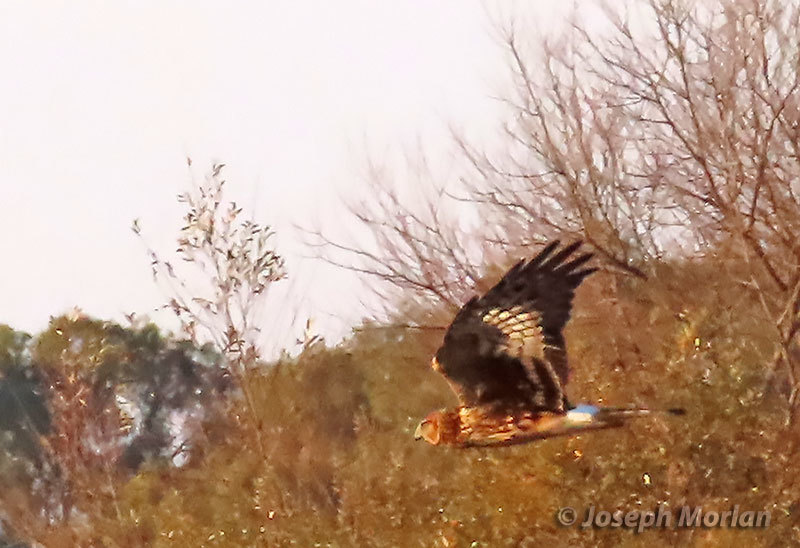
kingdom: Animalia
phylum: Chordata
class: Aves
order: Accipitriformes
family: Accipitridae
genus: Circus
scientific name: Circus cyaneus
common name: Hen harrier
